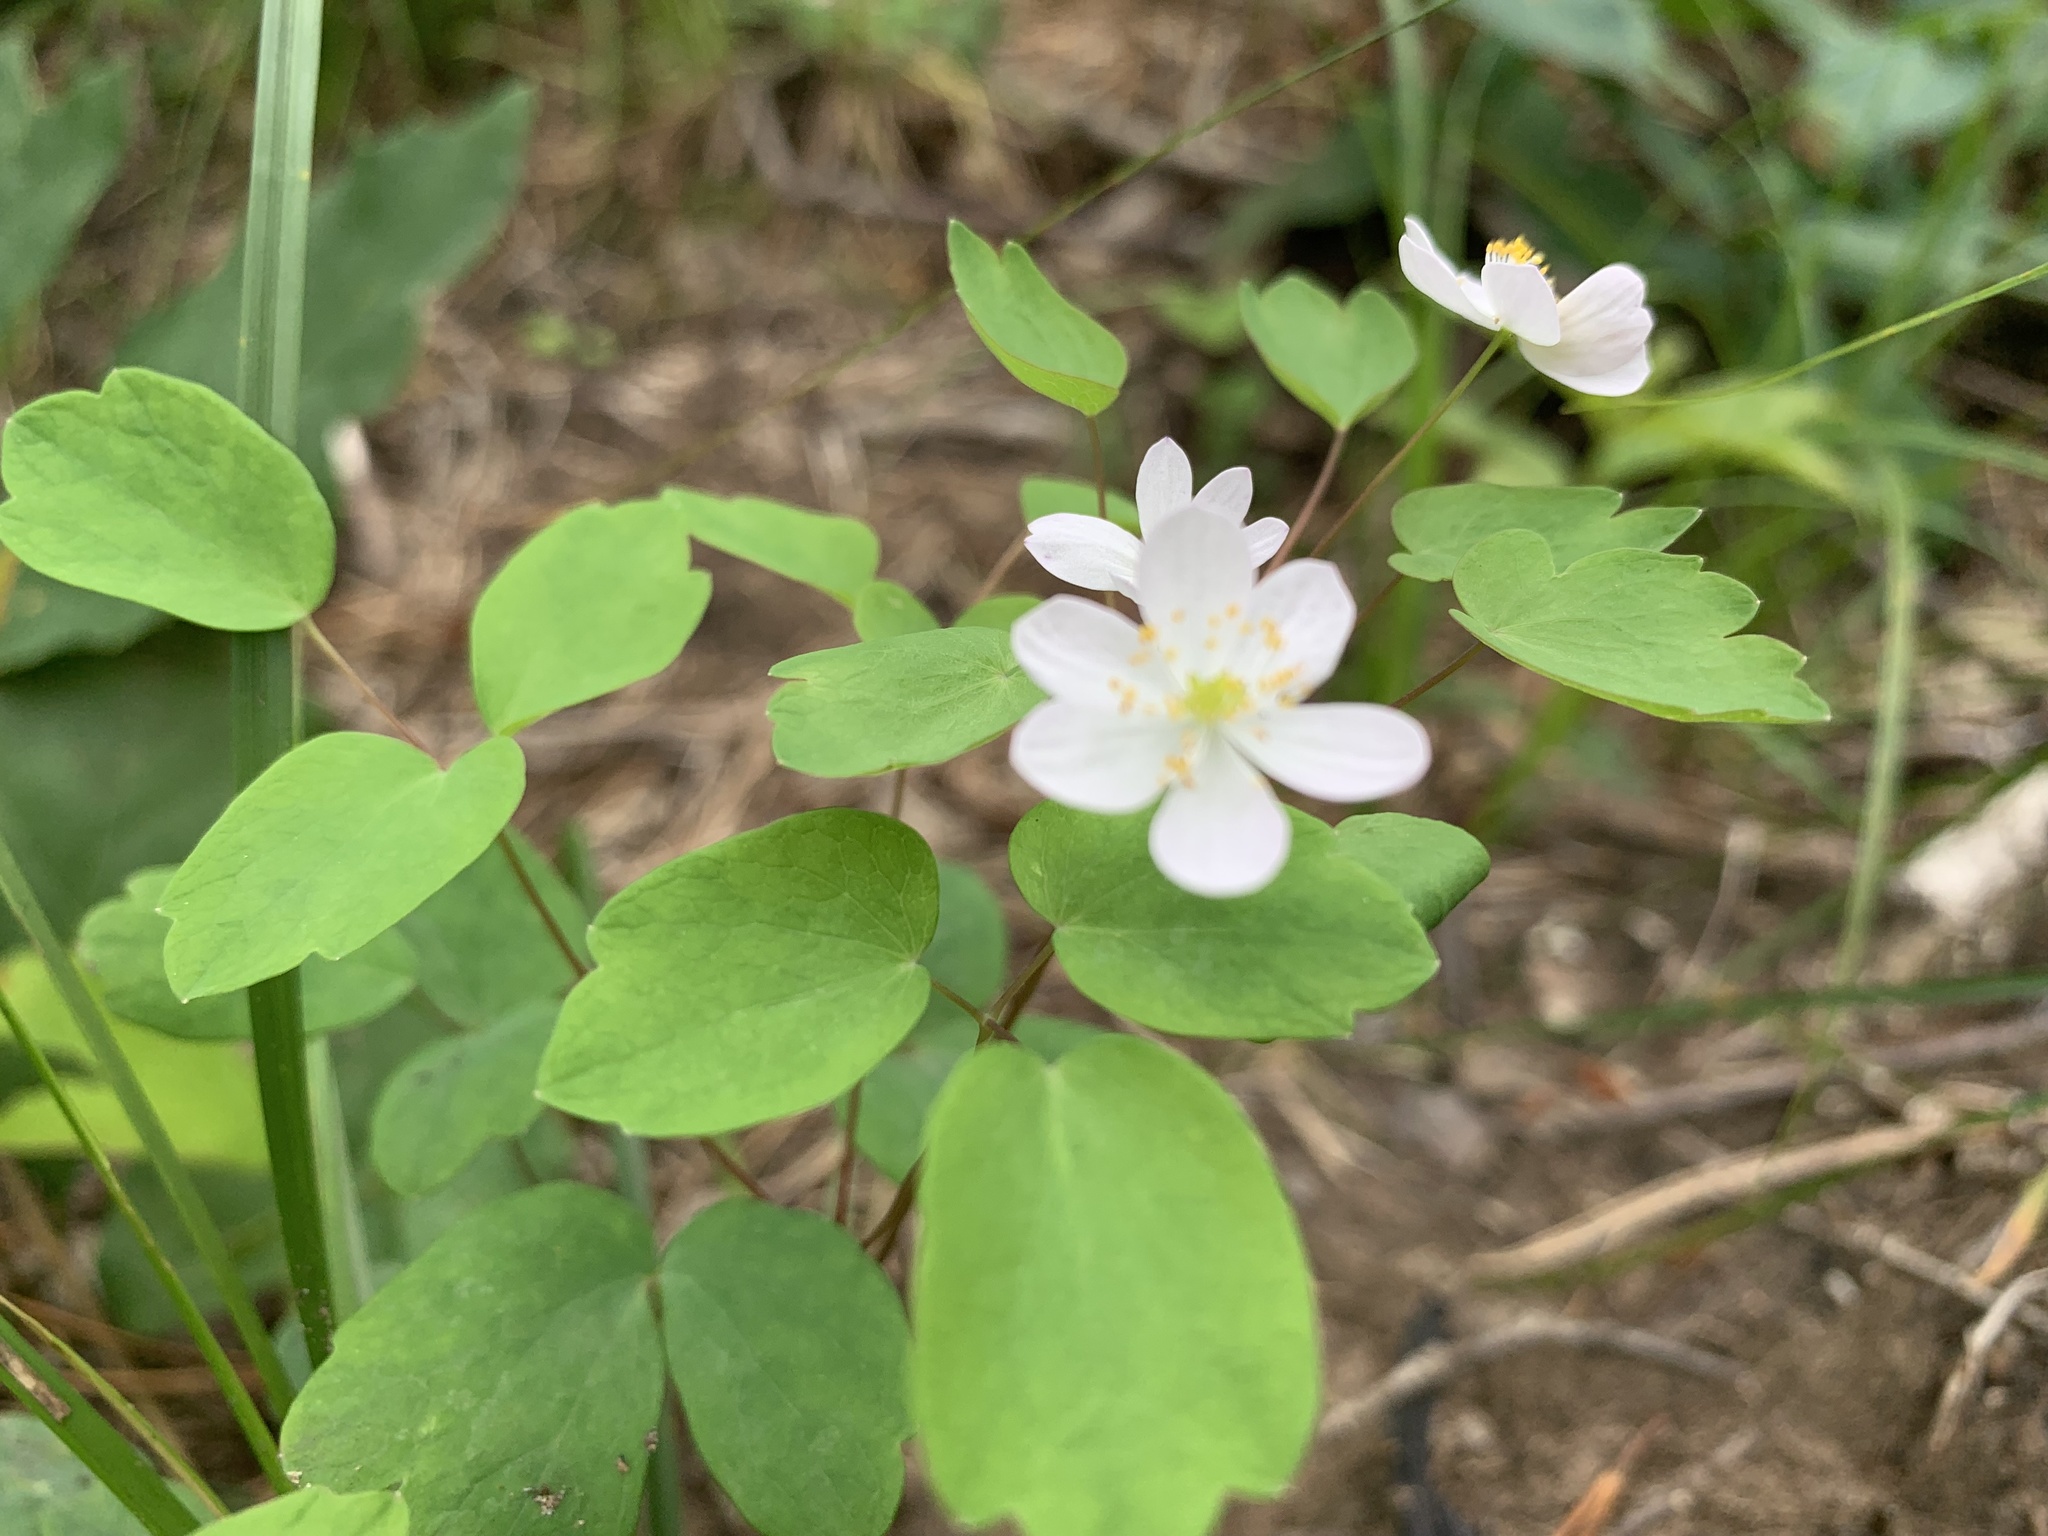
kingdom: Plantae
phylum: Tracheophyta
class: Magnoliopsida
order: Ranunculales
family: Ranunculaceae
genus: Thalictrum
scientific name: Thalictrum thalictroides
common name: Rue-anemone
